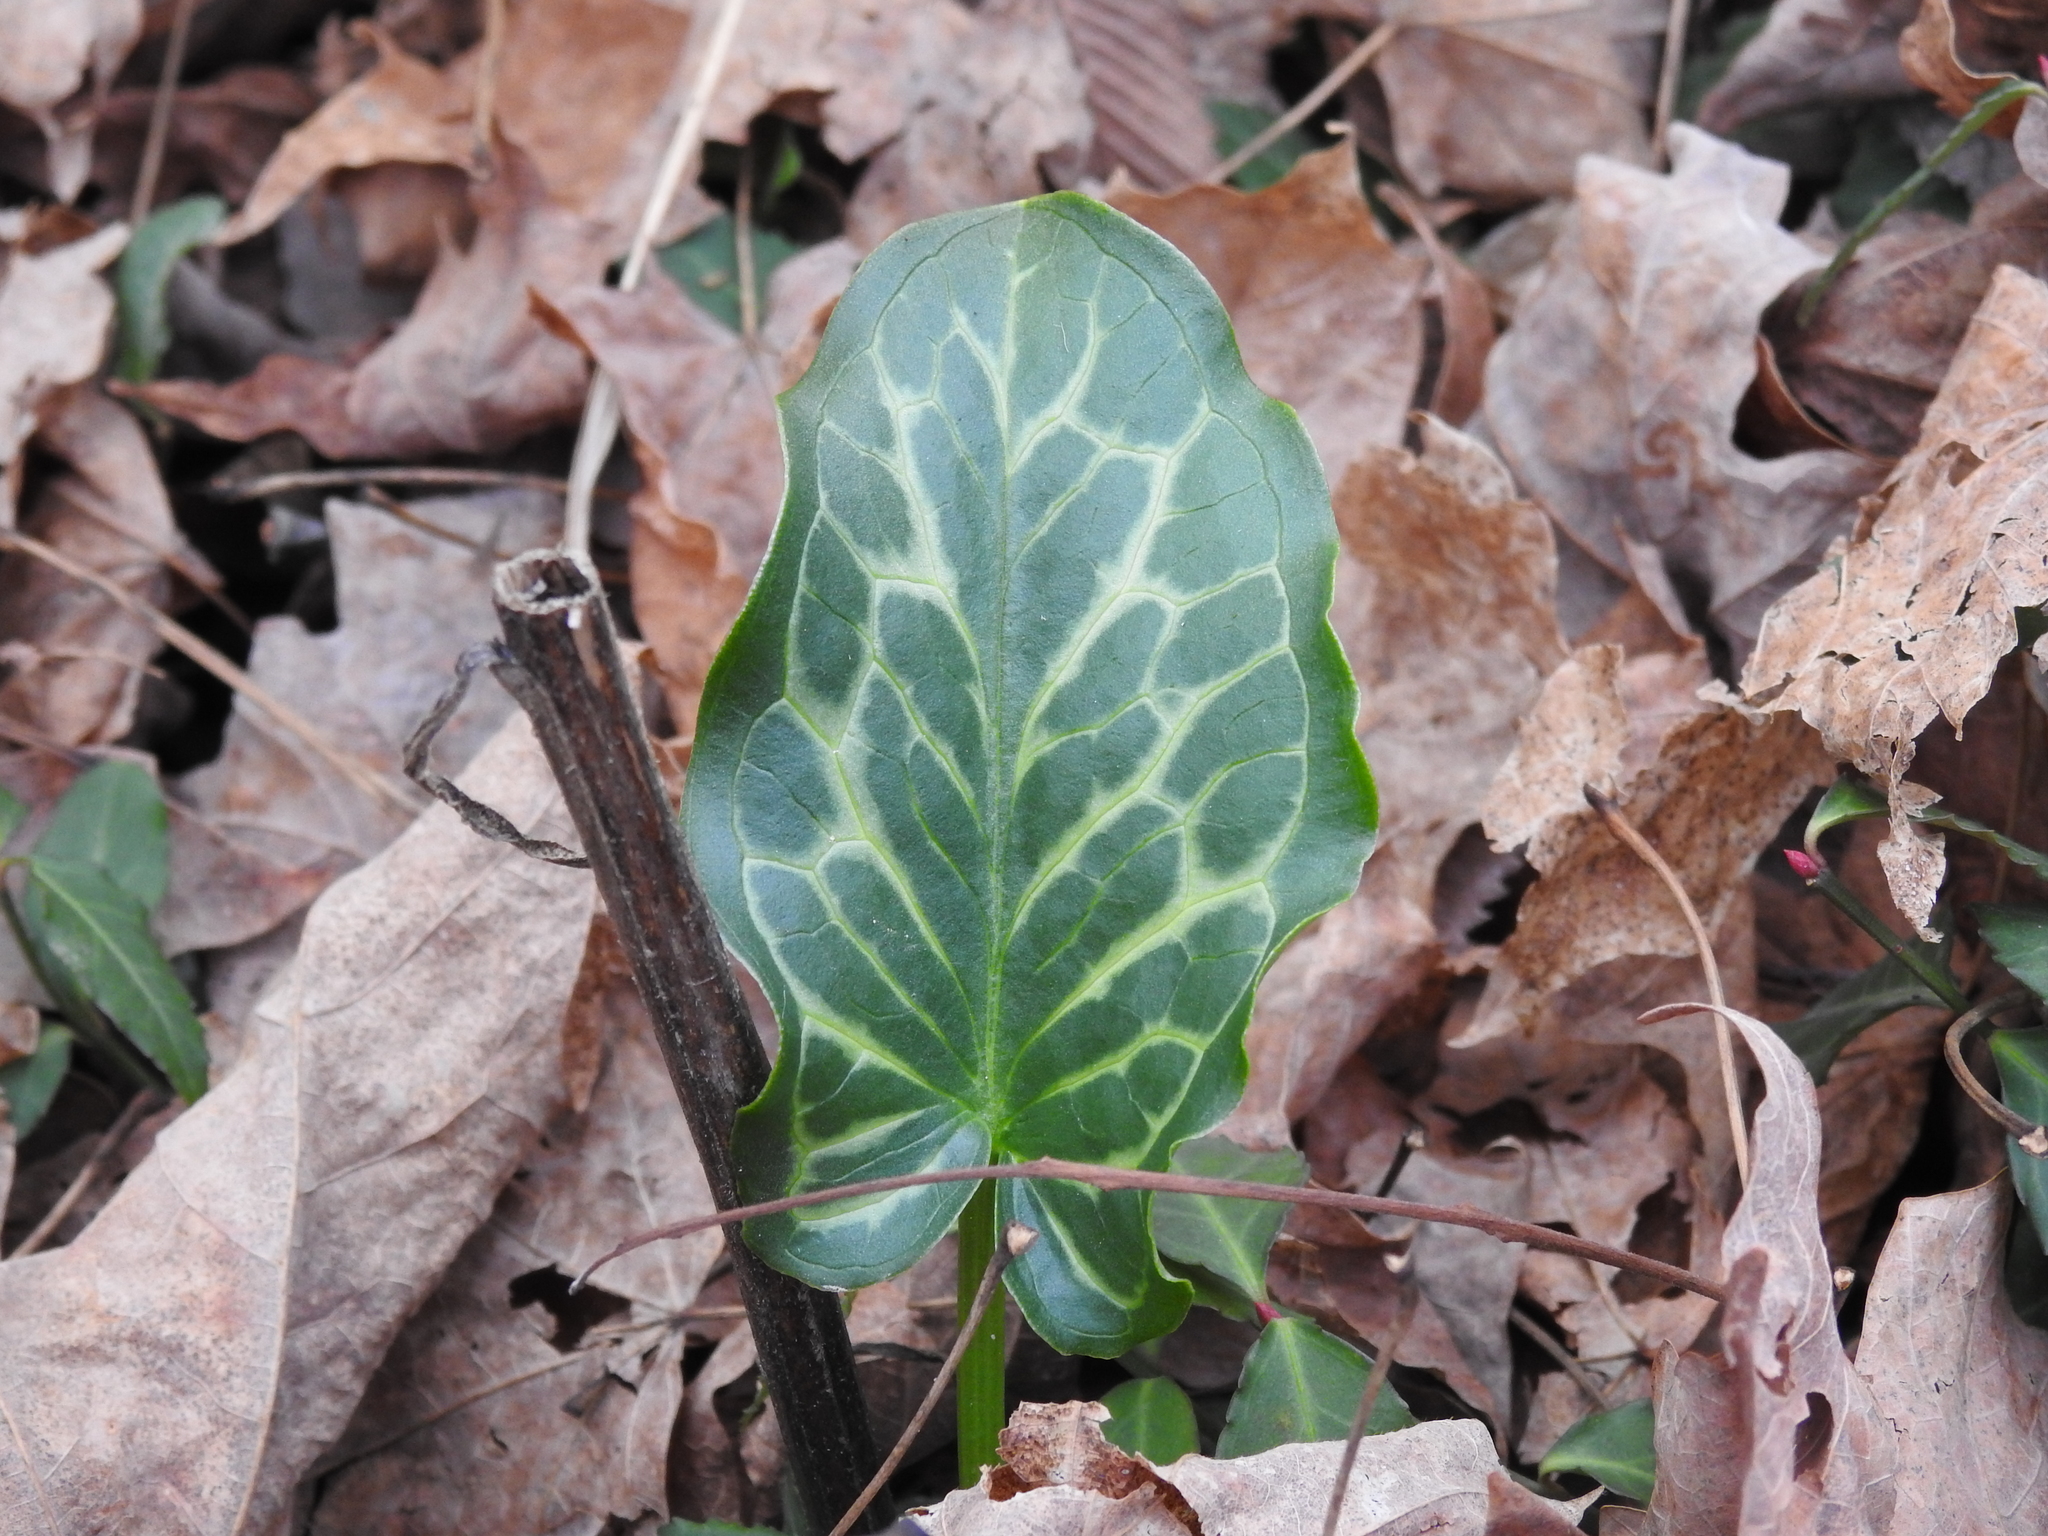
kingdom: Plantae
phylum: Tracheophyta
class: Liliopsida
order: Alismatales
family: Araceae
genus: Arum
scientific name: Arum italicum
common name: Italian lords-and-ladies
